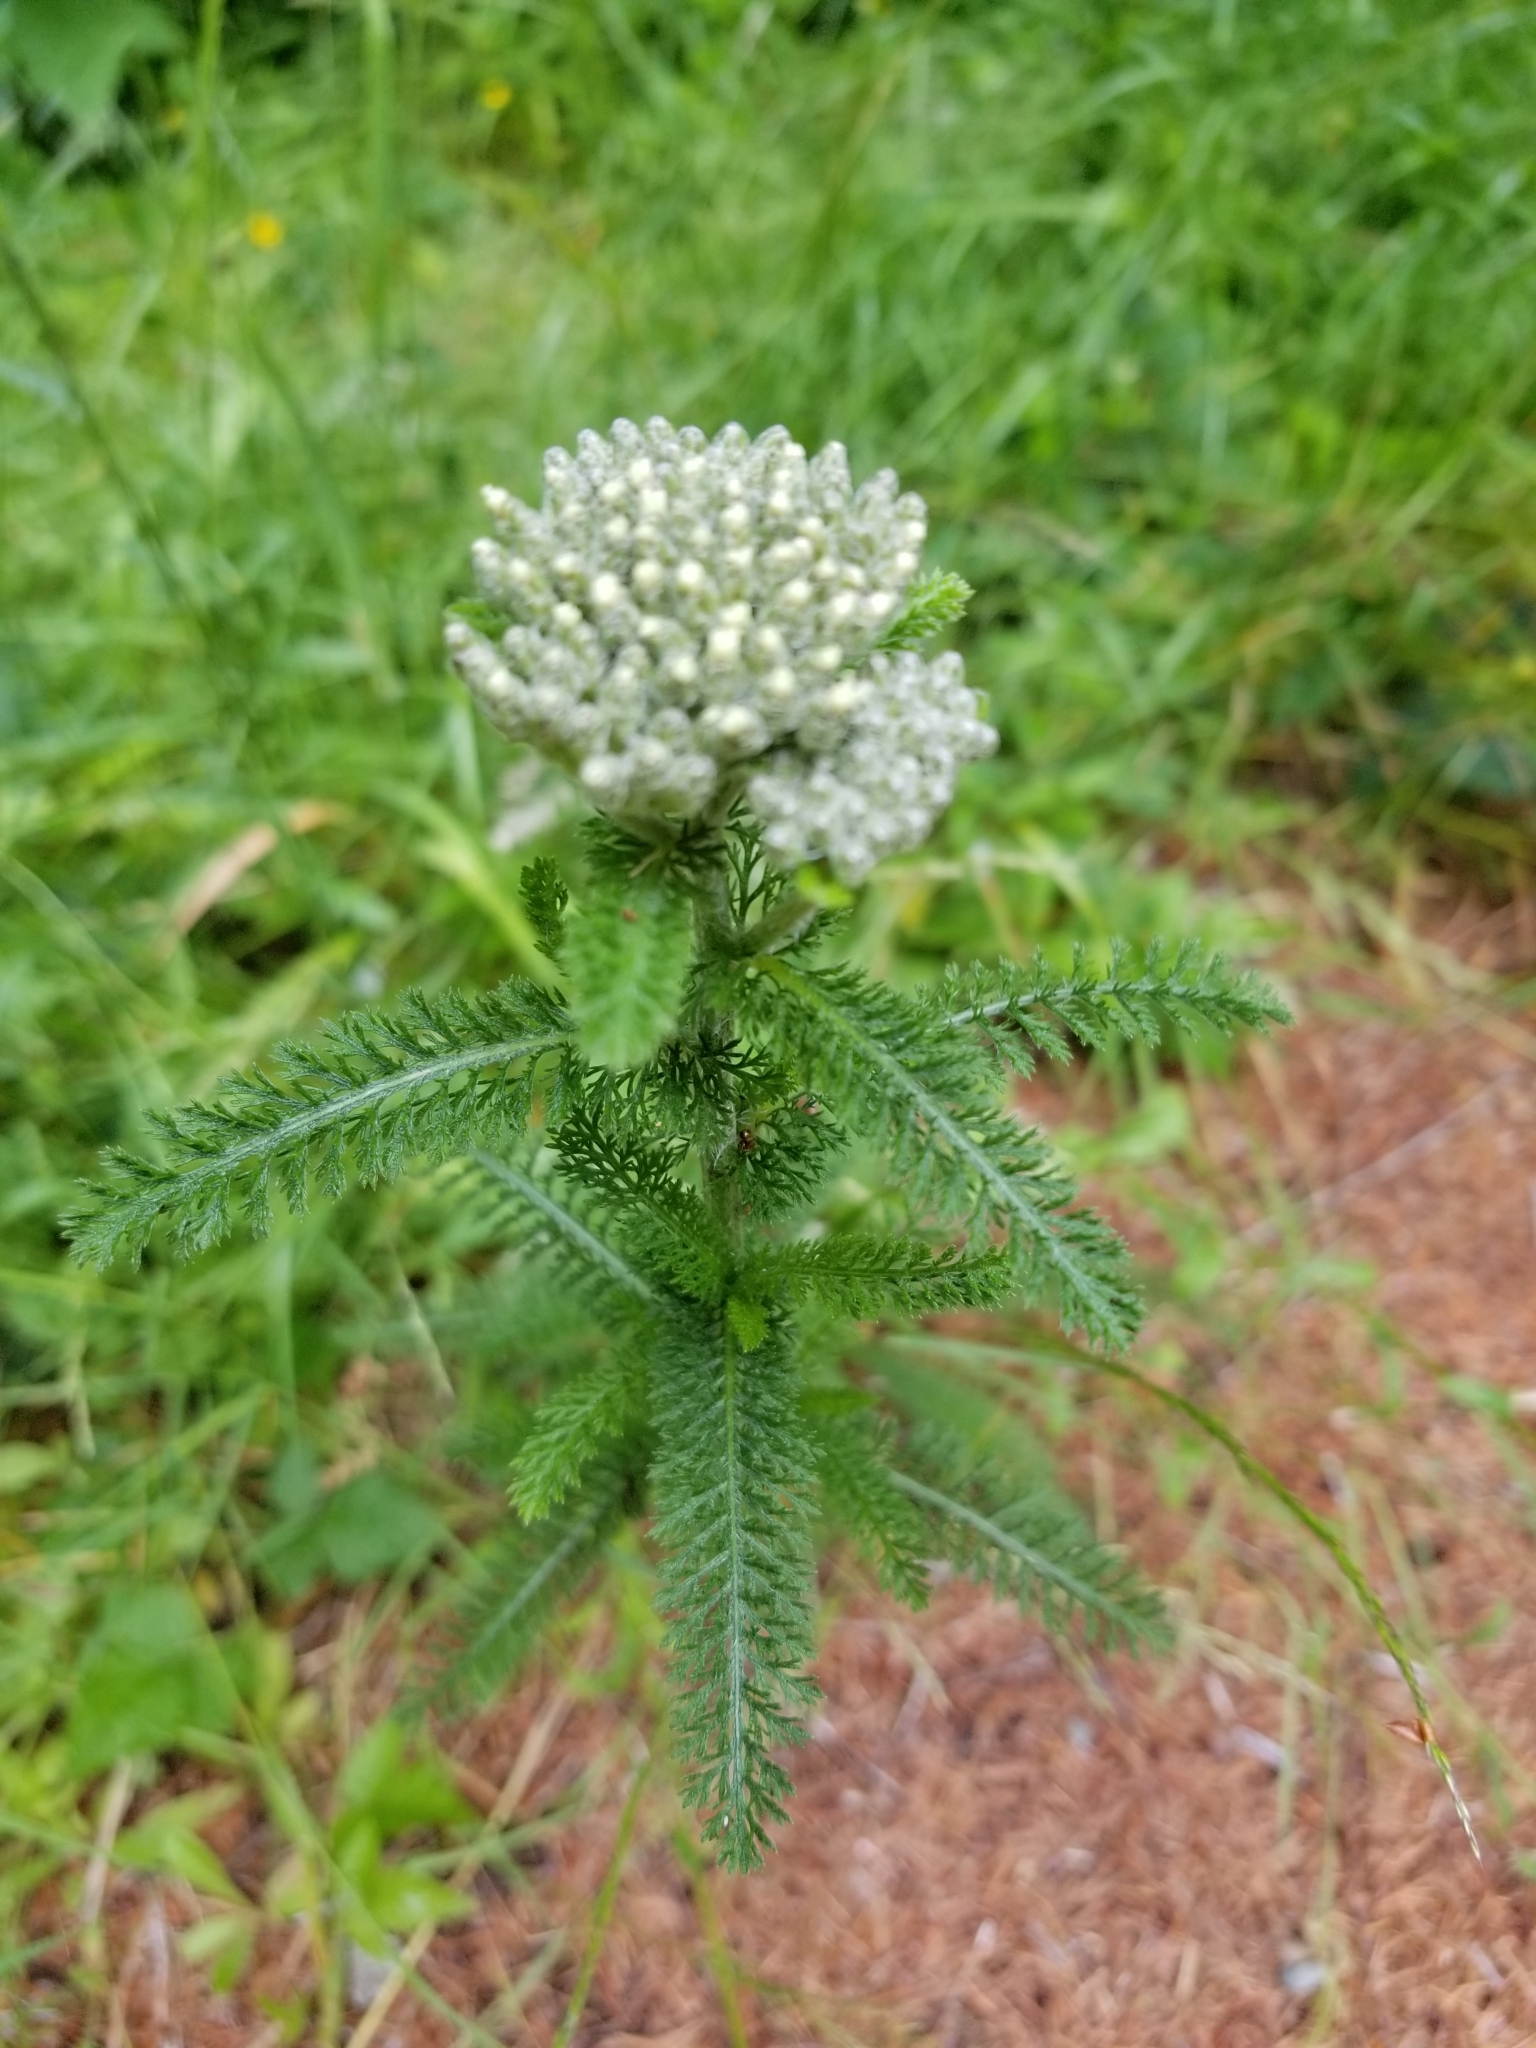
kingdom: Plantae
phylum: Tracheophyta
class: Magnoliopsida
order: Asterales
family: Asteraceae
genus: Achillea
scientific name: Achillea millefolium
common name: Yarrow
